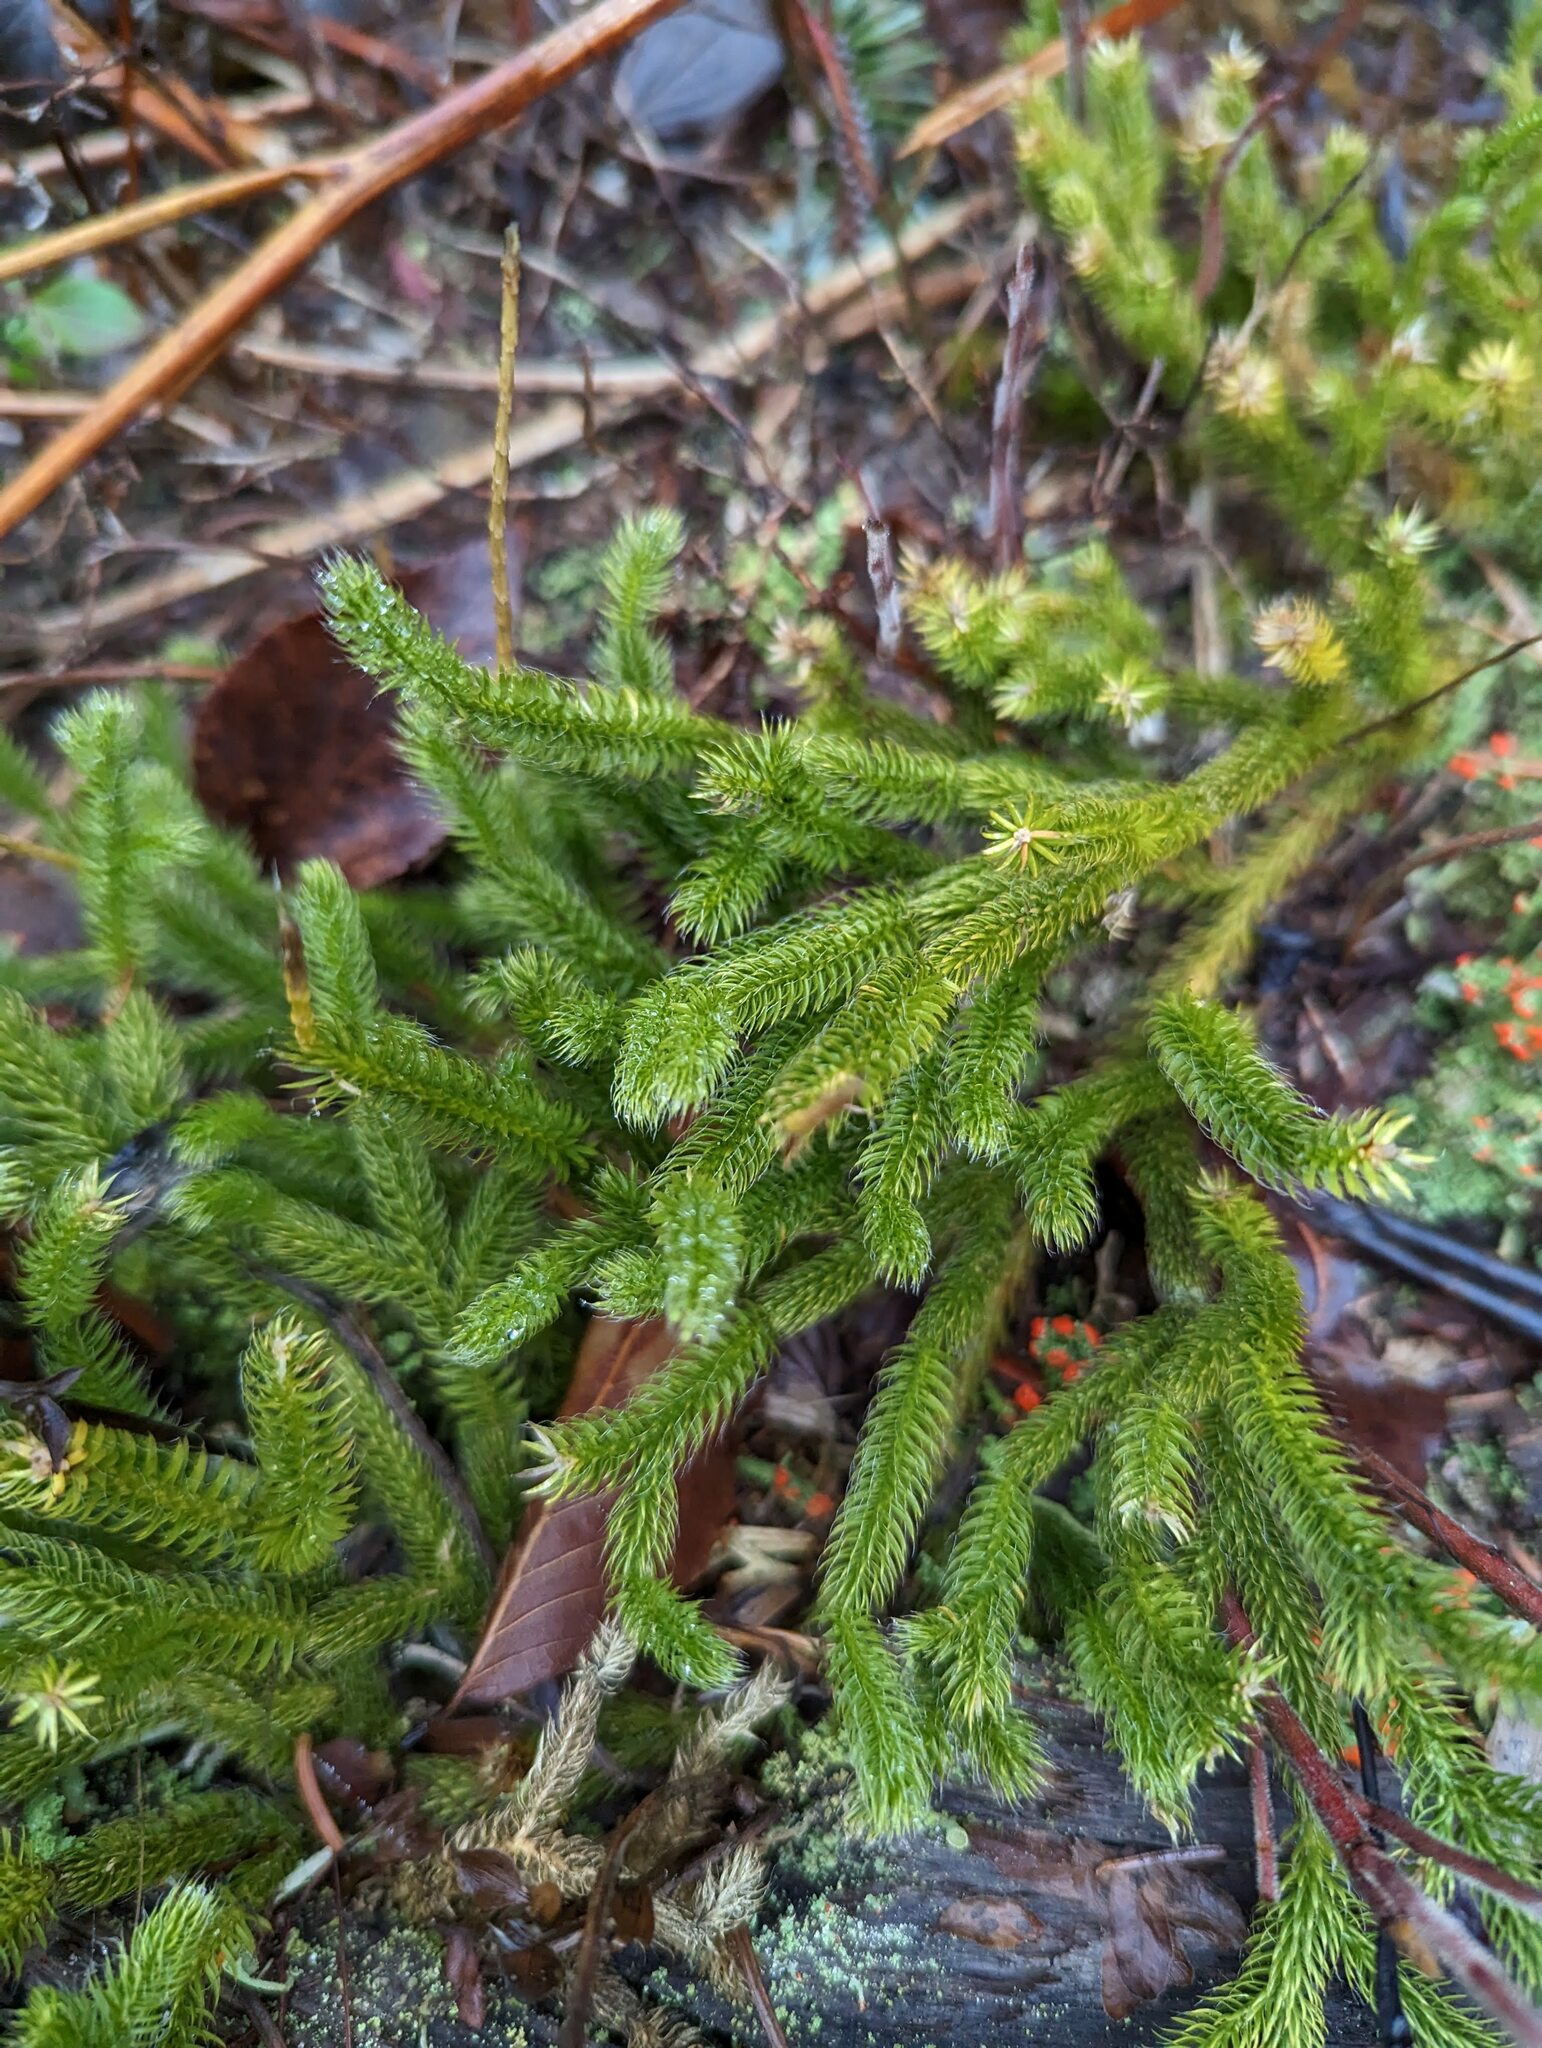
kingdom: Plantae
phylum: Tracheophyta
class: Lycopodiopsida
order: Lycopodiales
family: Lycopodiaceae
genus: Lycopodium
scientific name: Lycopodium clavatum
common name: Stag's-horn clubmoss
